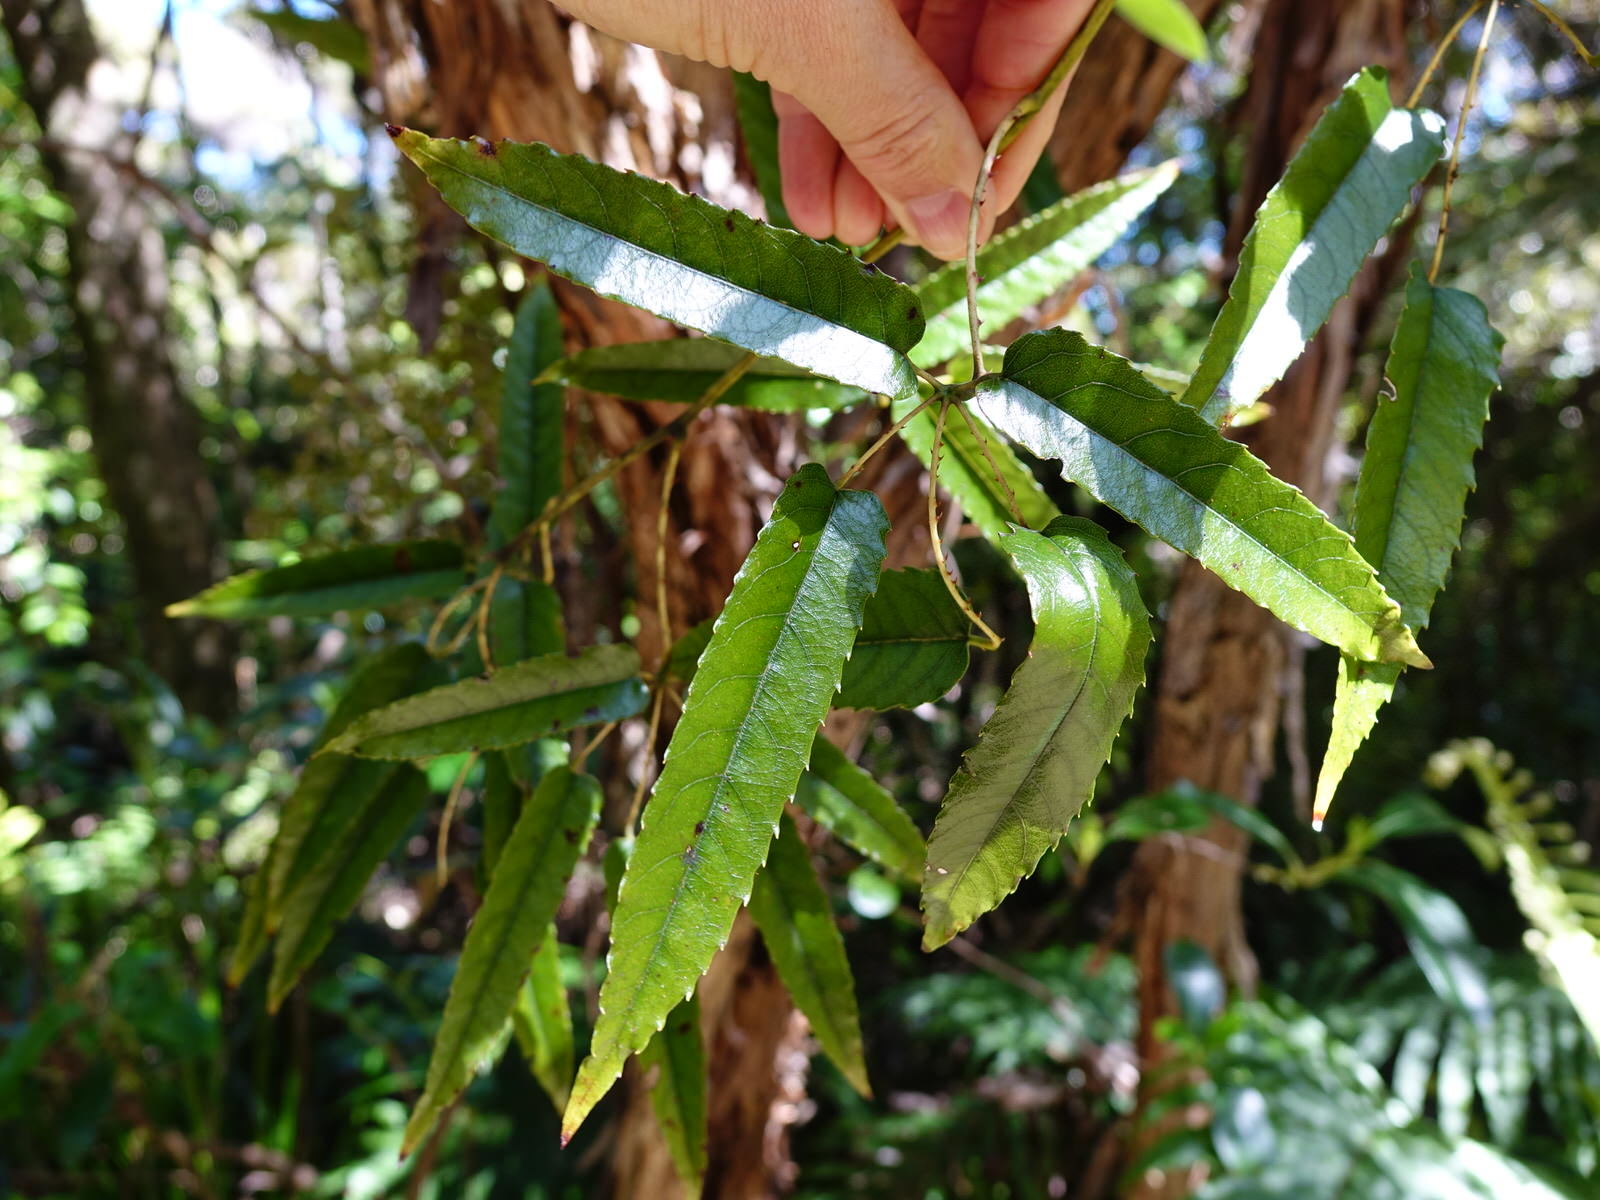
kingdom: Plantae
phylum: Tracheophyta
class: Magnoliopsida
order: Rosales
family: Rosaceae
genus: Rubus
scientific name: Rubus cissoides
